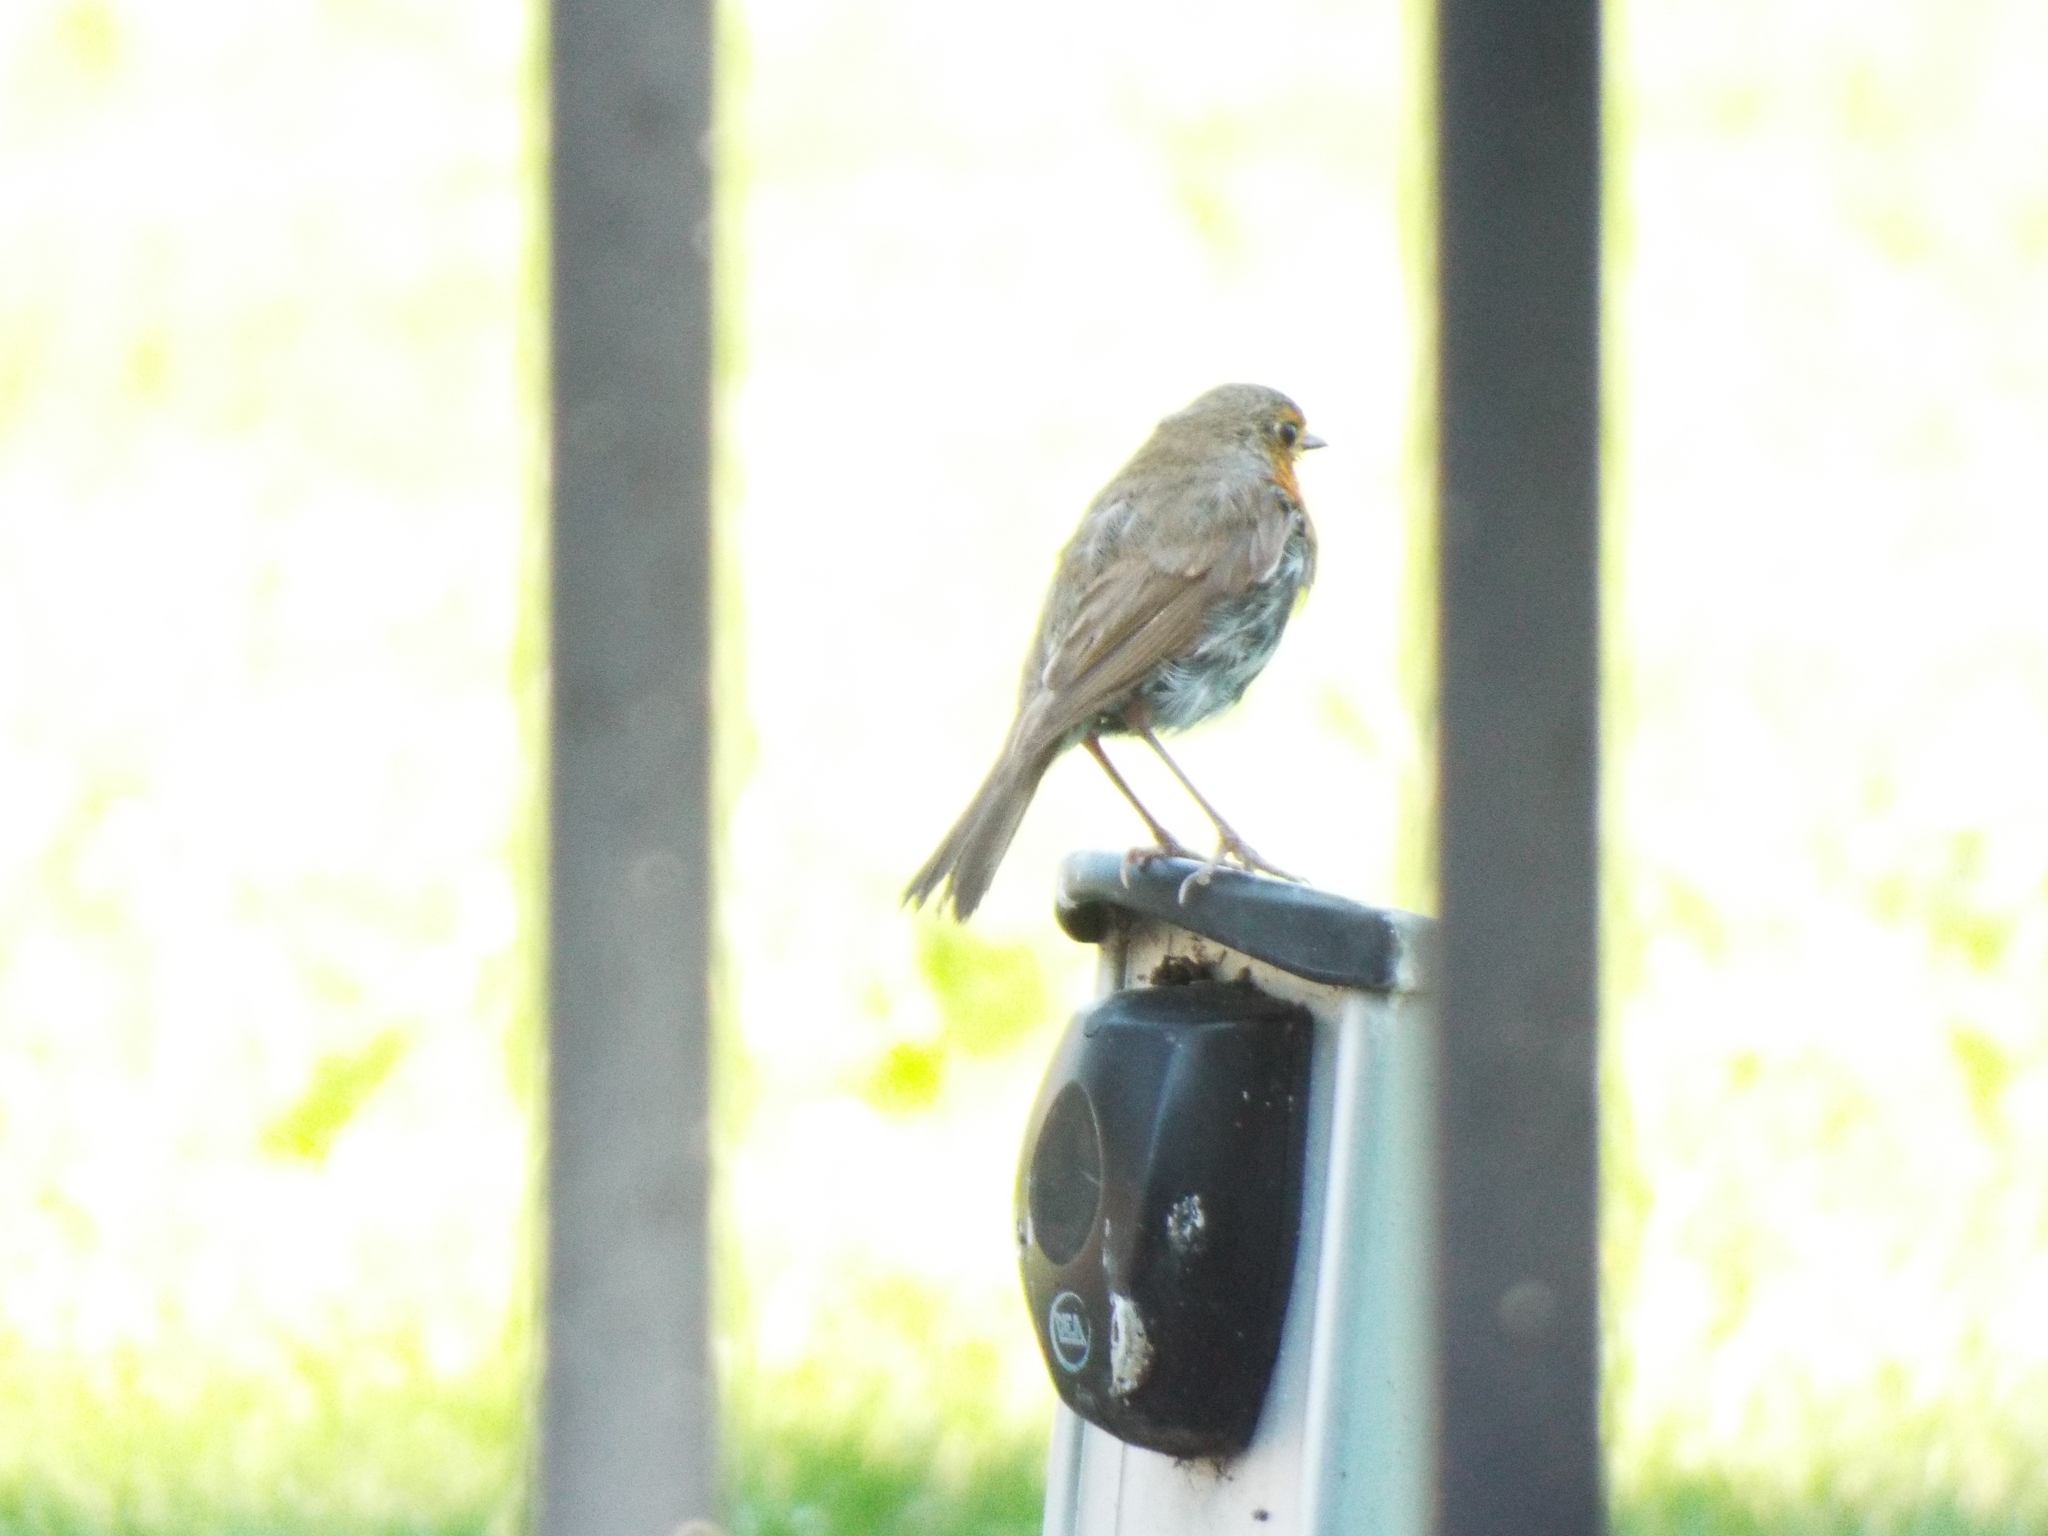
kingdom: Animalia
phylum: Chordata
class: Aves
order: Passeriformes
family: Muscicapidae
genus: Erithacus
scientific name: Erithacus rubecula
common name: European robin
